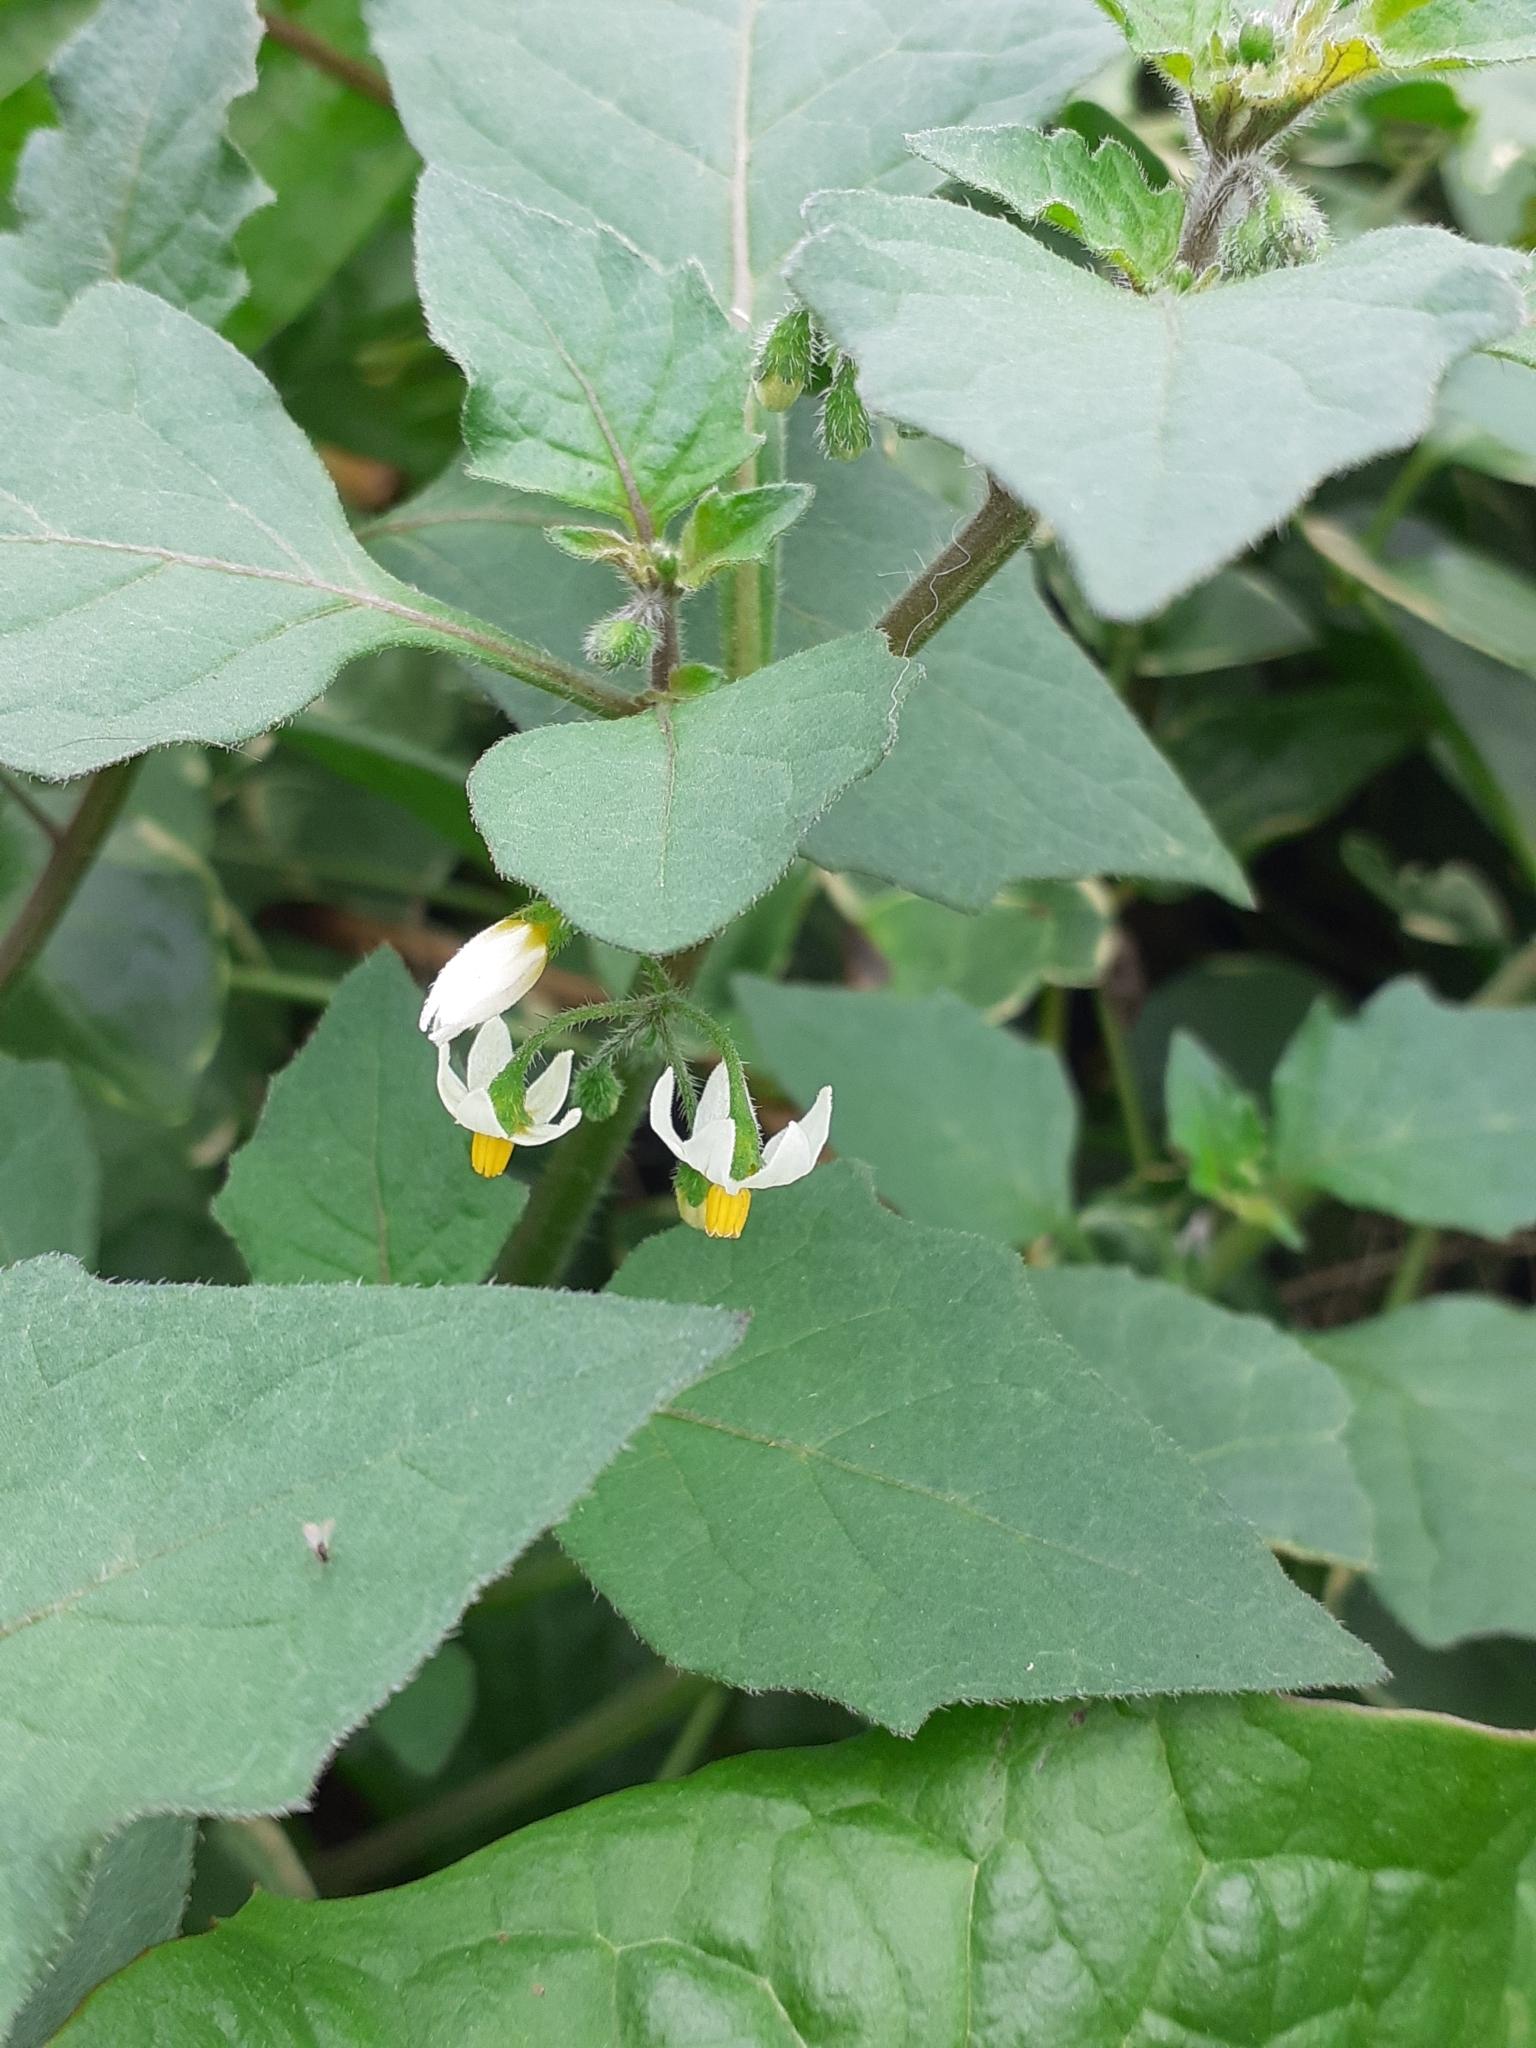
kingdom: Plantae
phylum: Tracheophyta
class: Magnoliopsida
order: Solanales
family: Solanaceae
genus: Solanum
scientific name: Solanum nigrum
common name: Black nightshade
